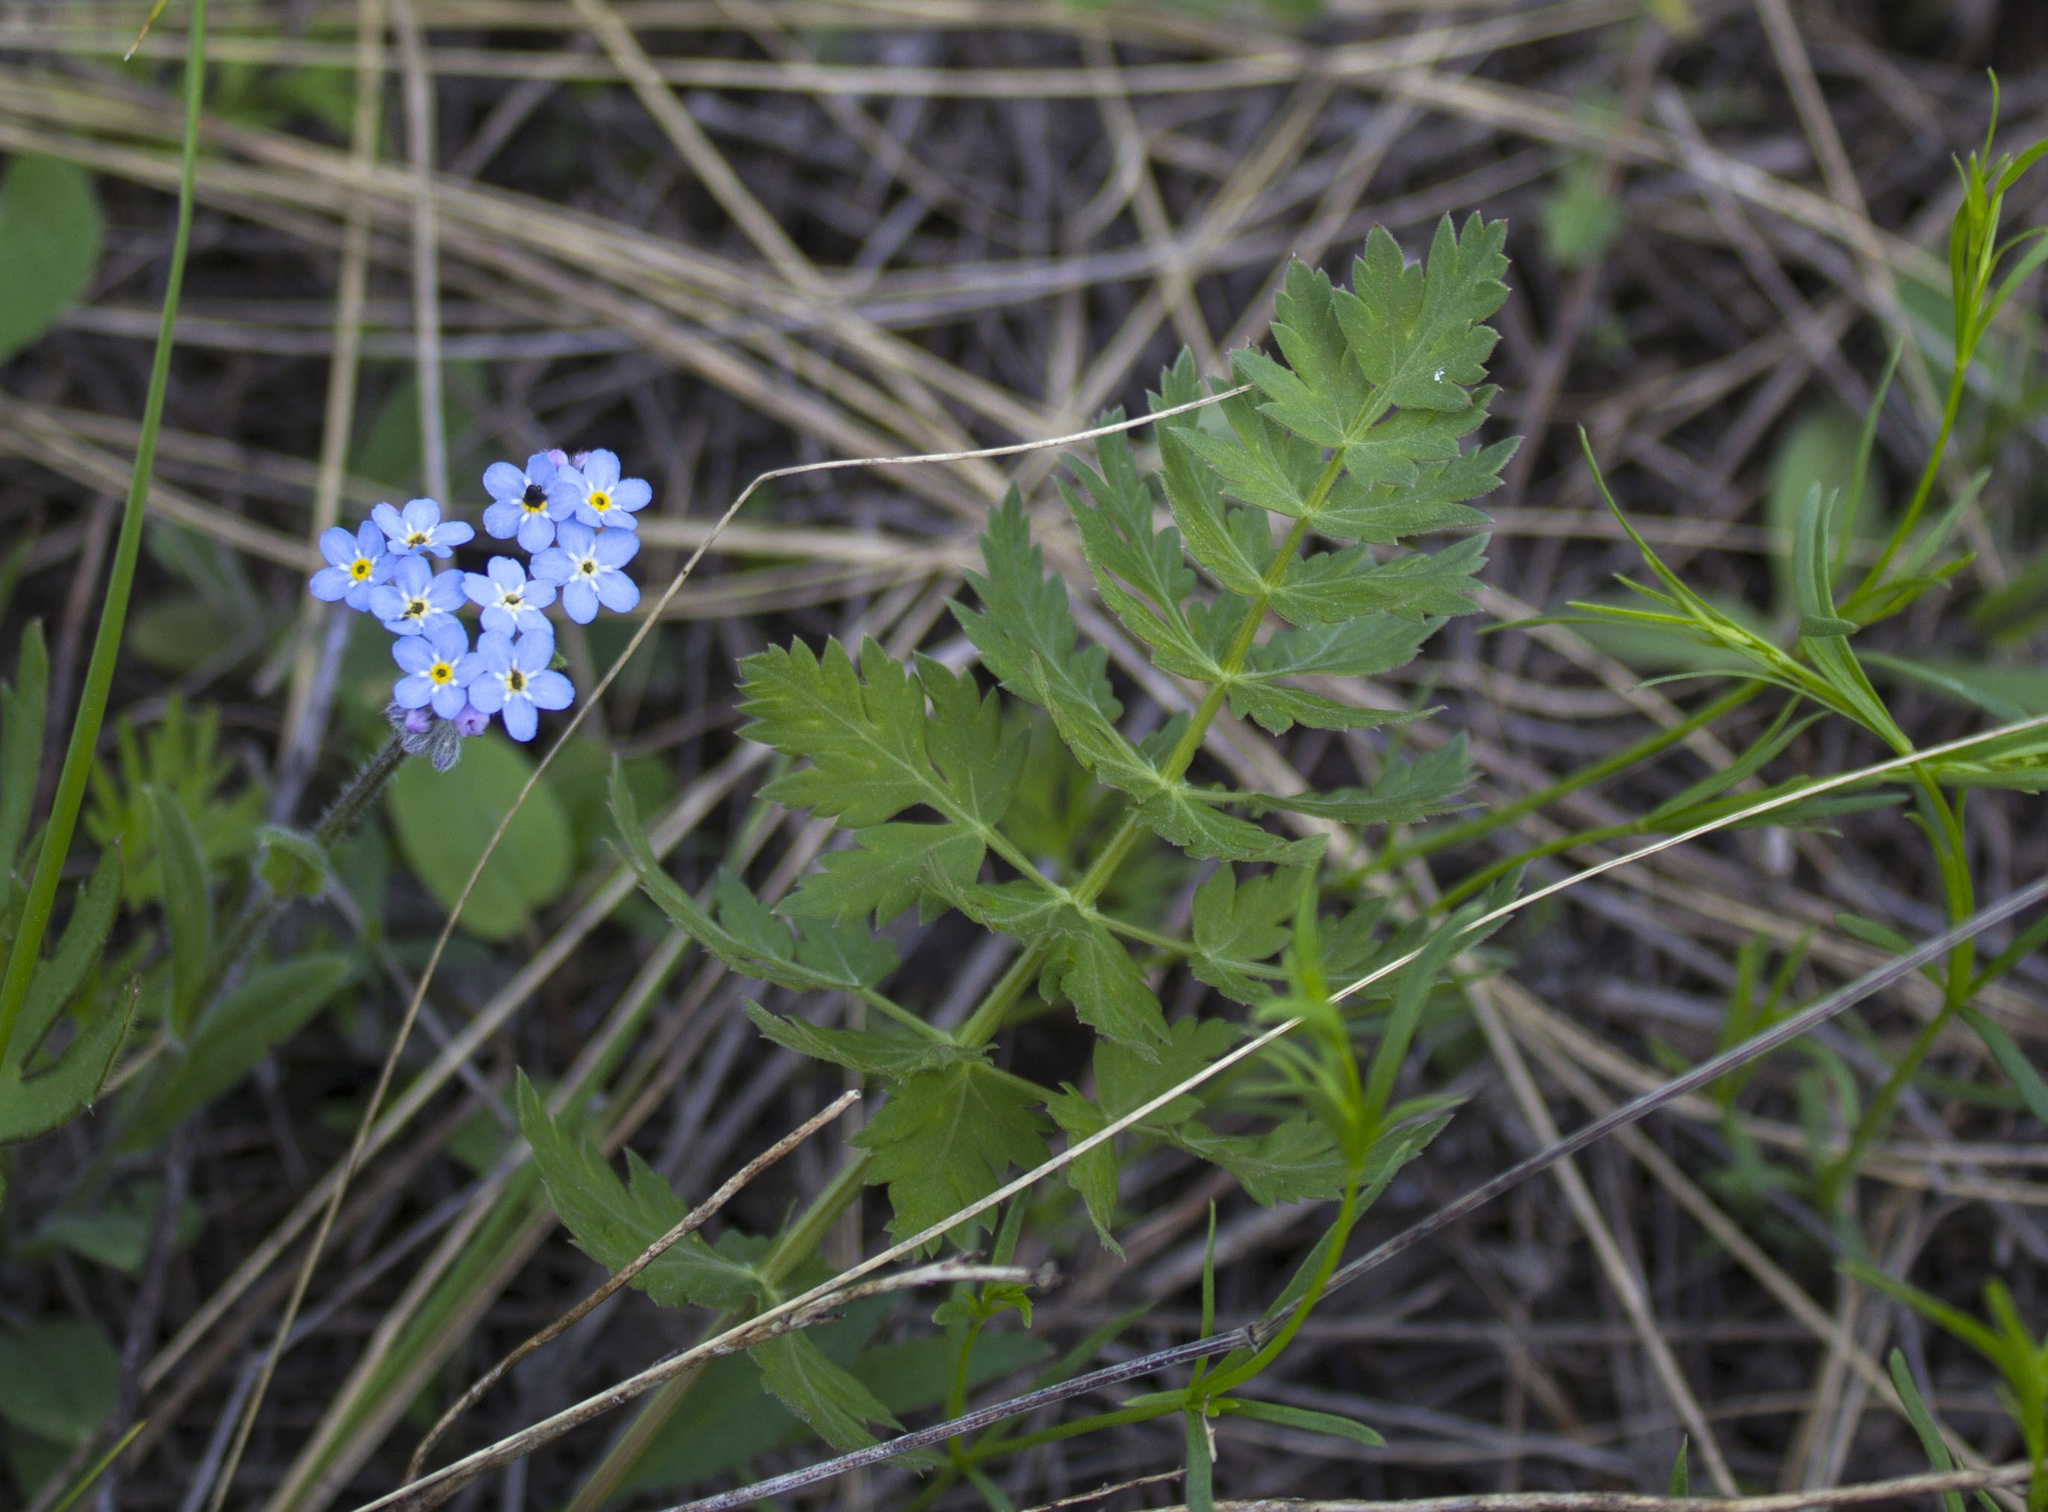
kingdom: Plantae
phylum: Tracheophyta
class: Magnoliopsida
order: Boraginales
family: Boraginaceae
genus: Myosotis
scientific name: Myosotis alpestris
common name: Alpine forget-me-not
